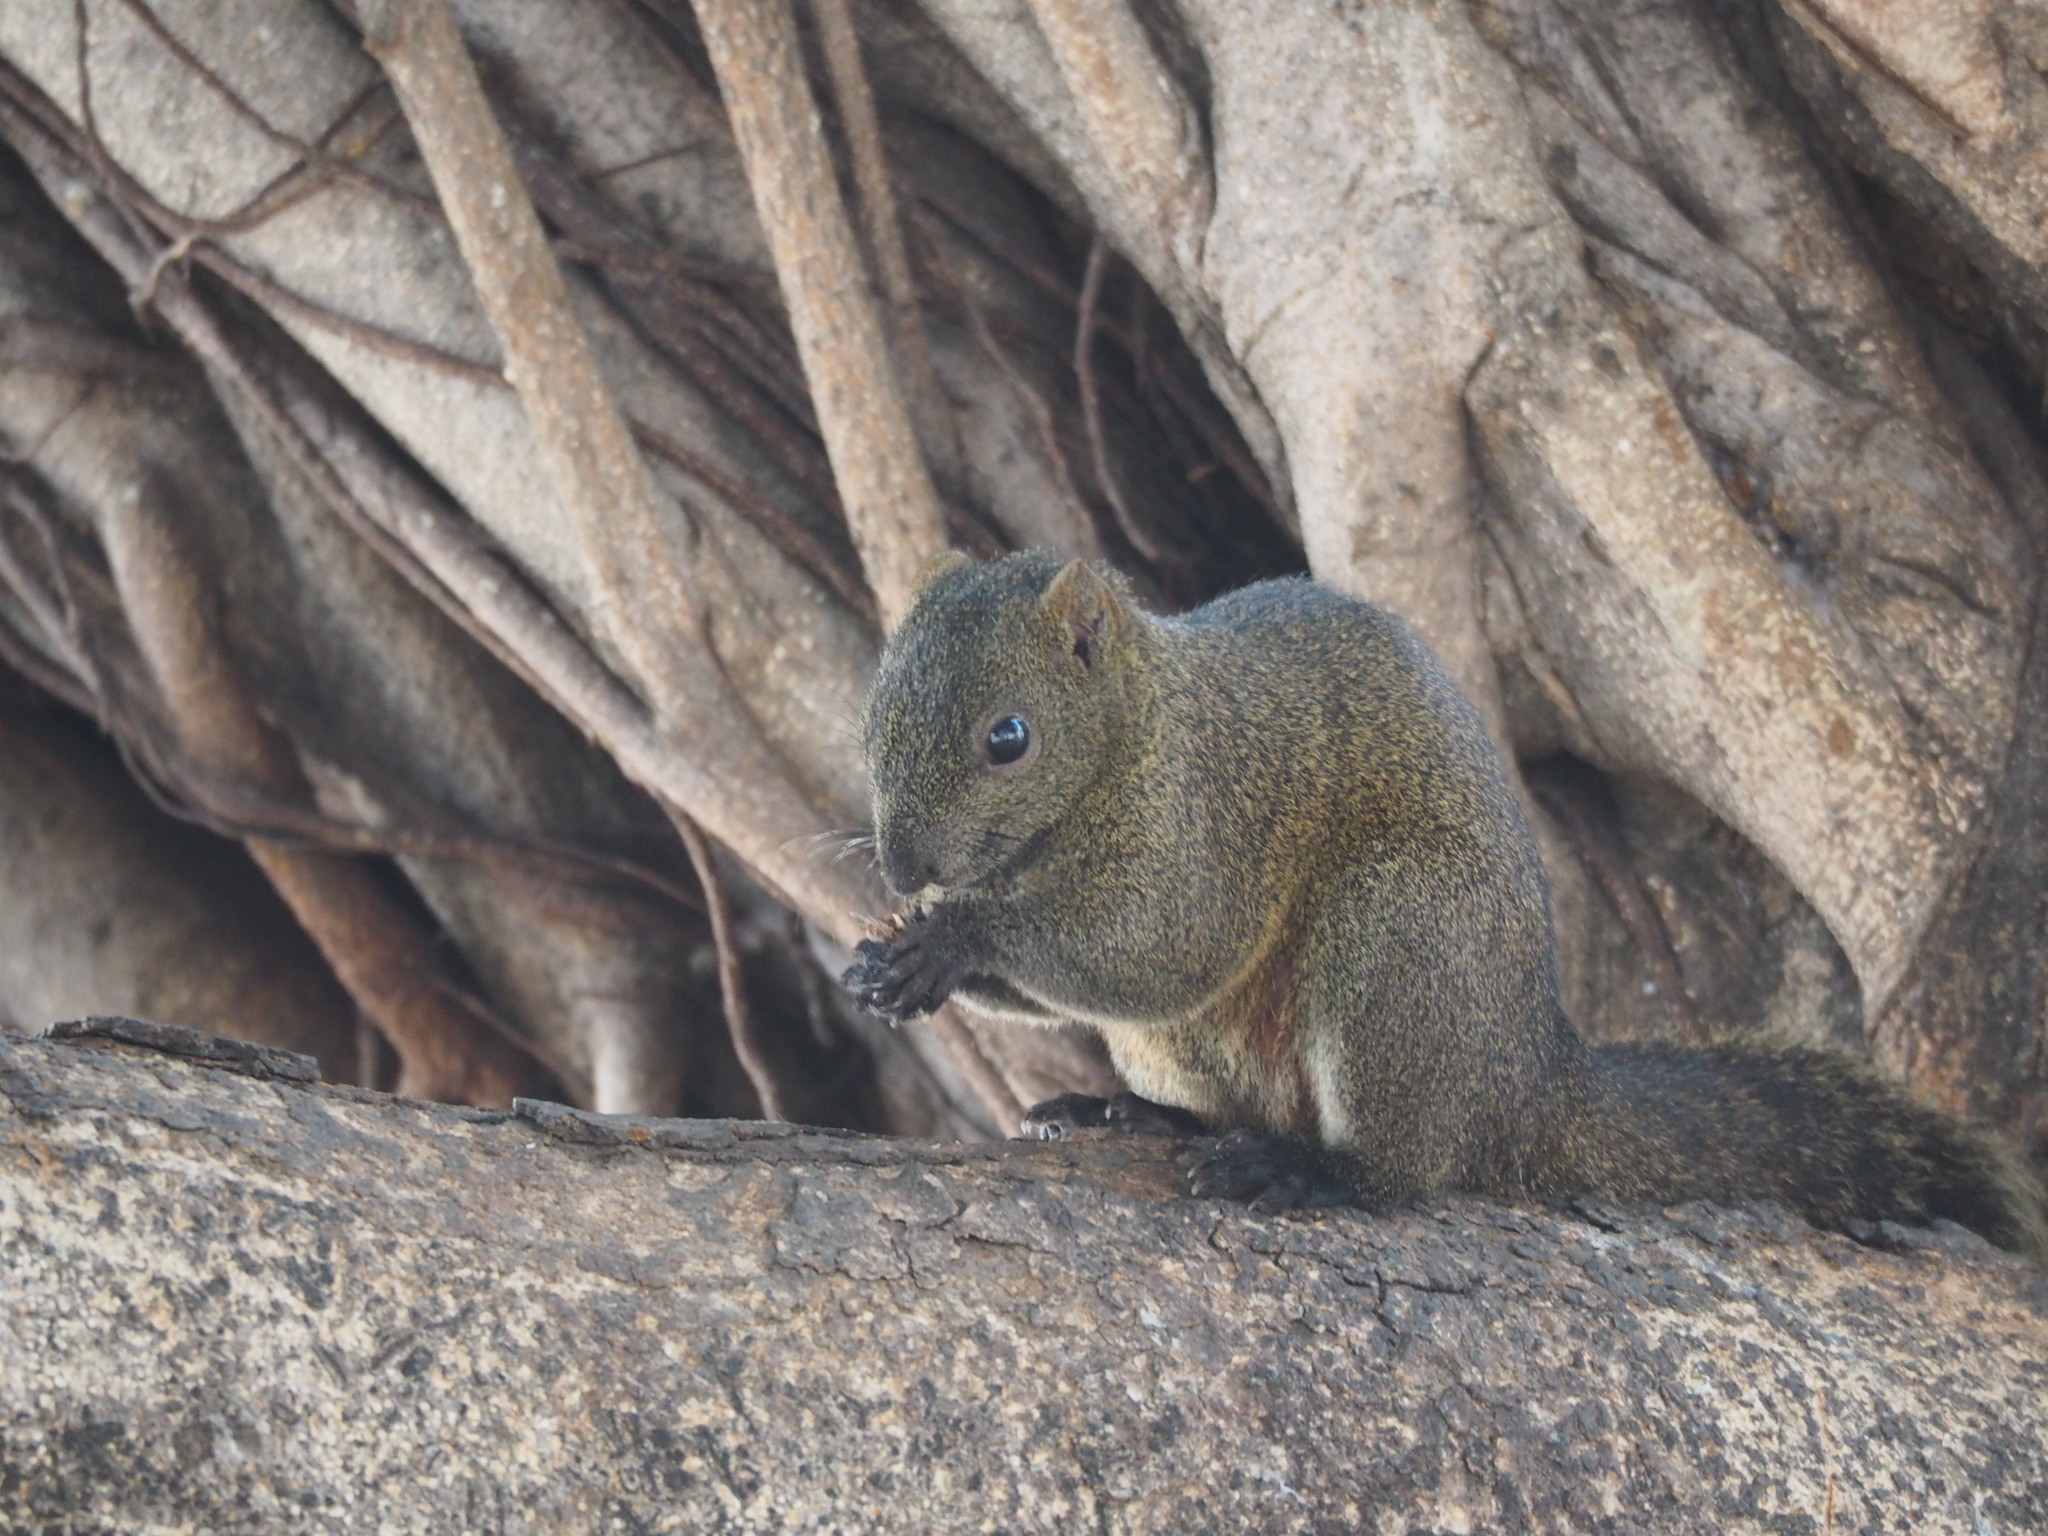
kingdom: Animalia
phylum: Chordata
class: Mammalia
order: Rodentia
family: Sciuridae
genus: Callosciurus
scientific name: Callosciurus erythraeus
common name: Pallas's squirrel
